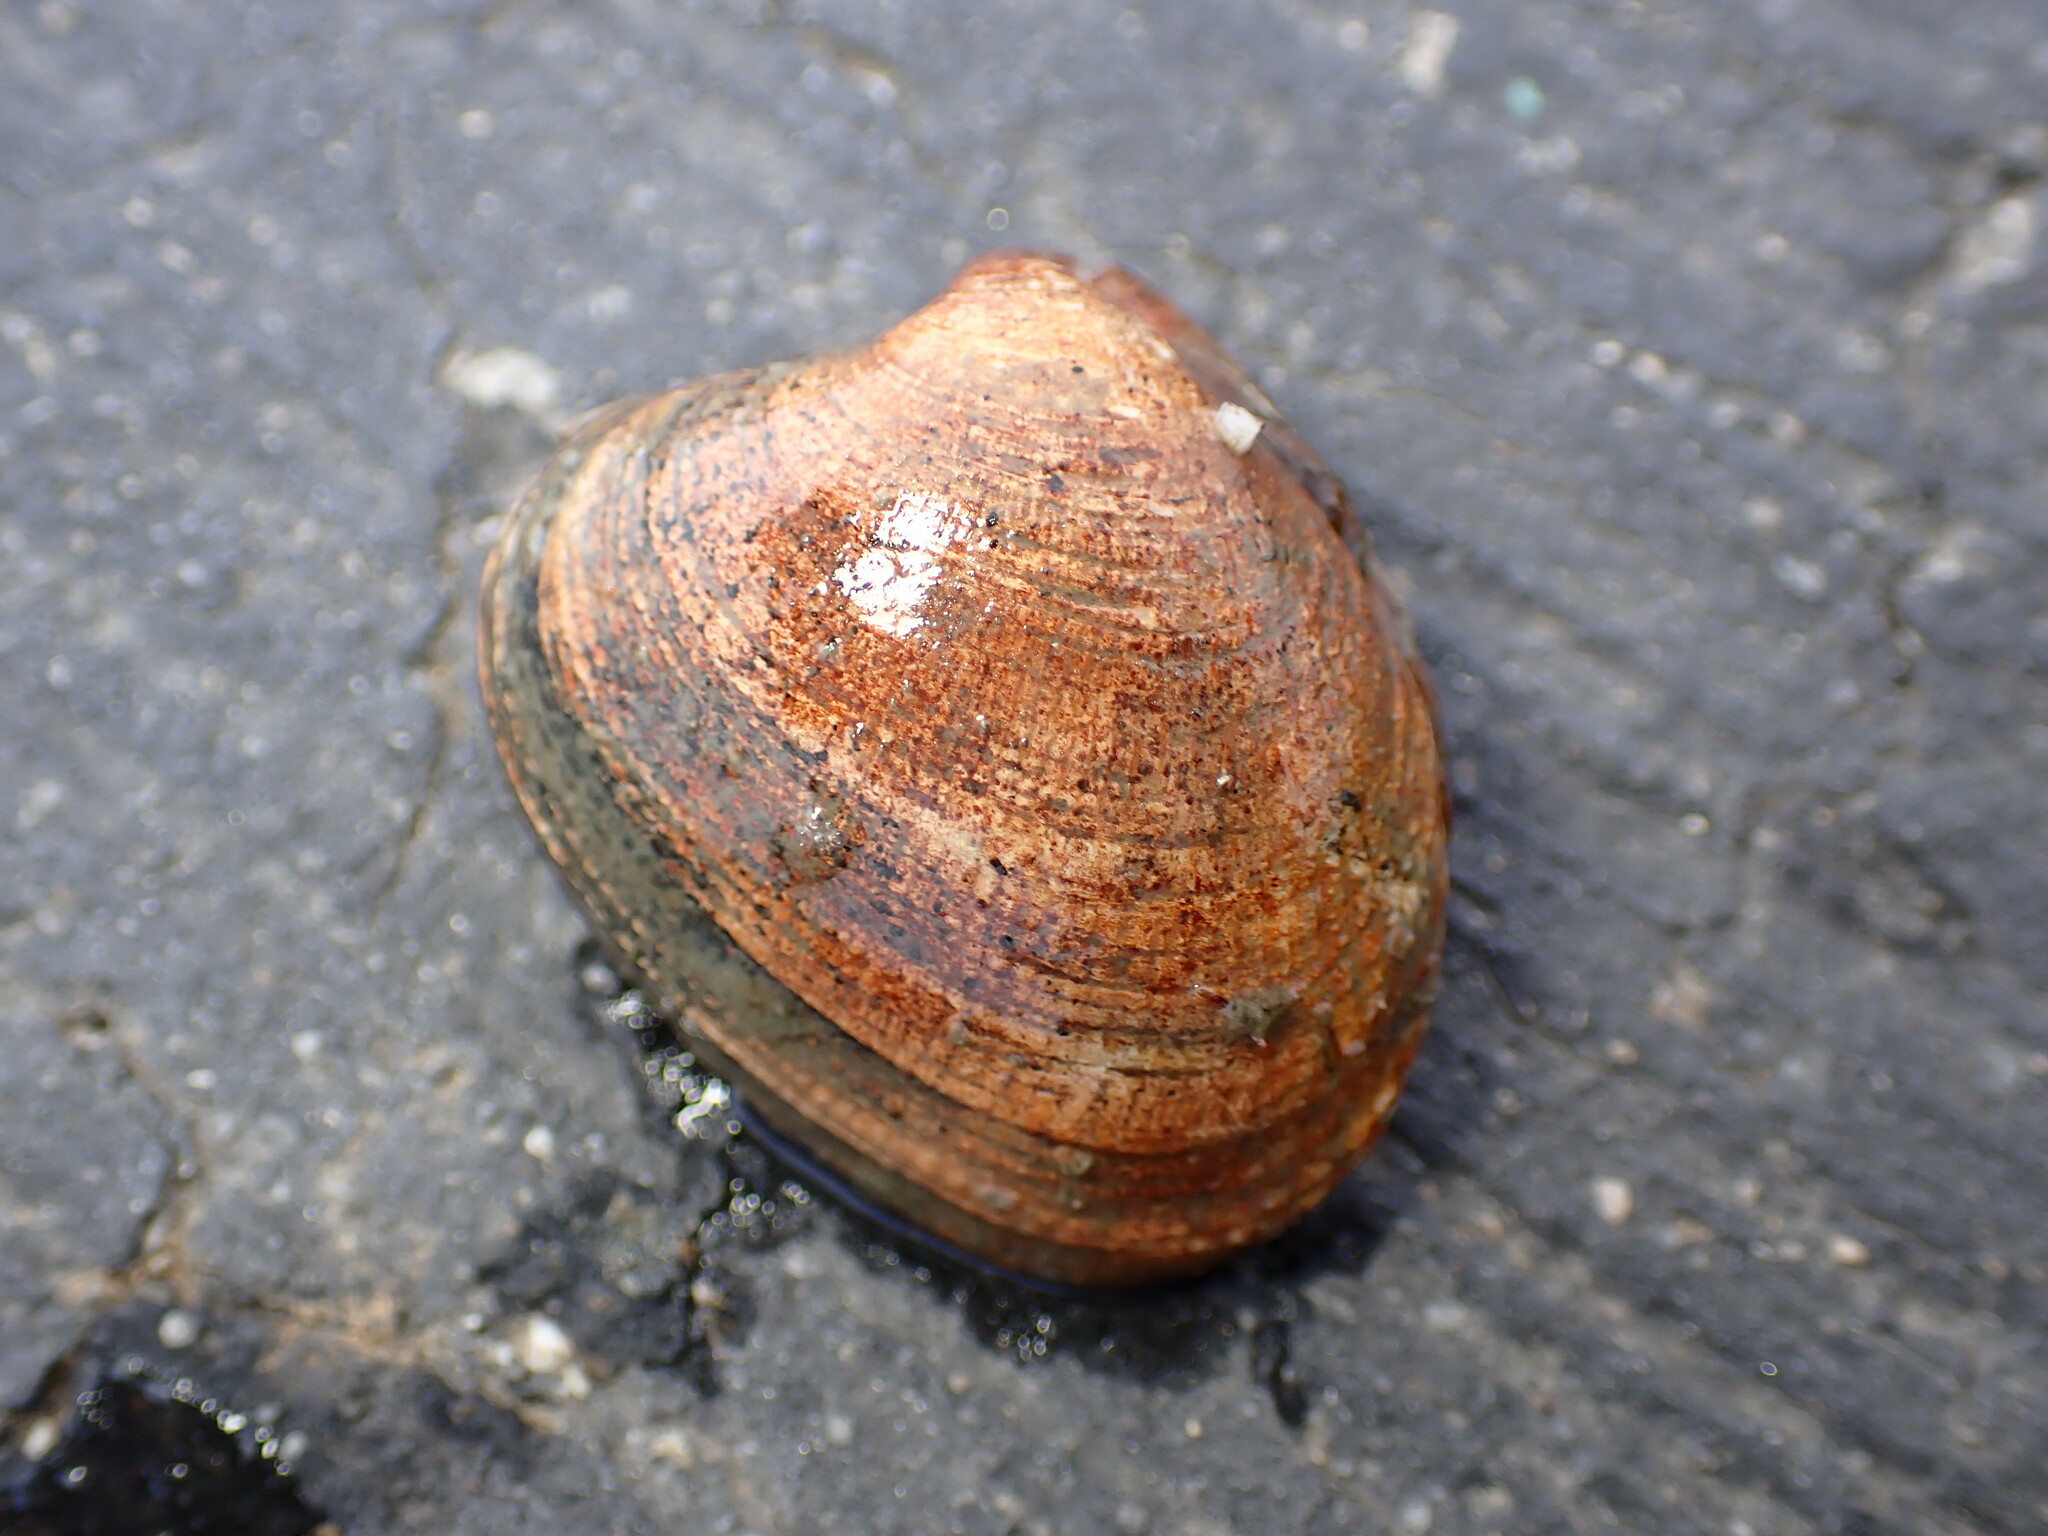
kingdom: Animalia
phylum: Mollusca
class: Bivalvia
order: Venerida
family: Veneridae
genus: Ruditapes
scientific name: Ruditapes philippinarum
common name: Manila clam
